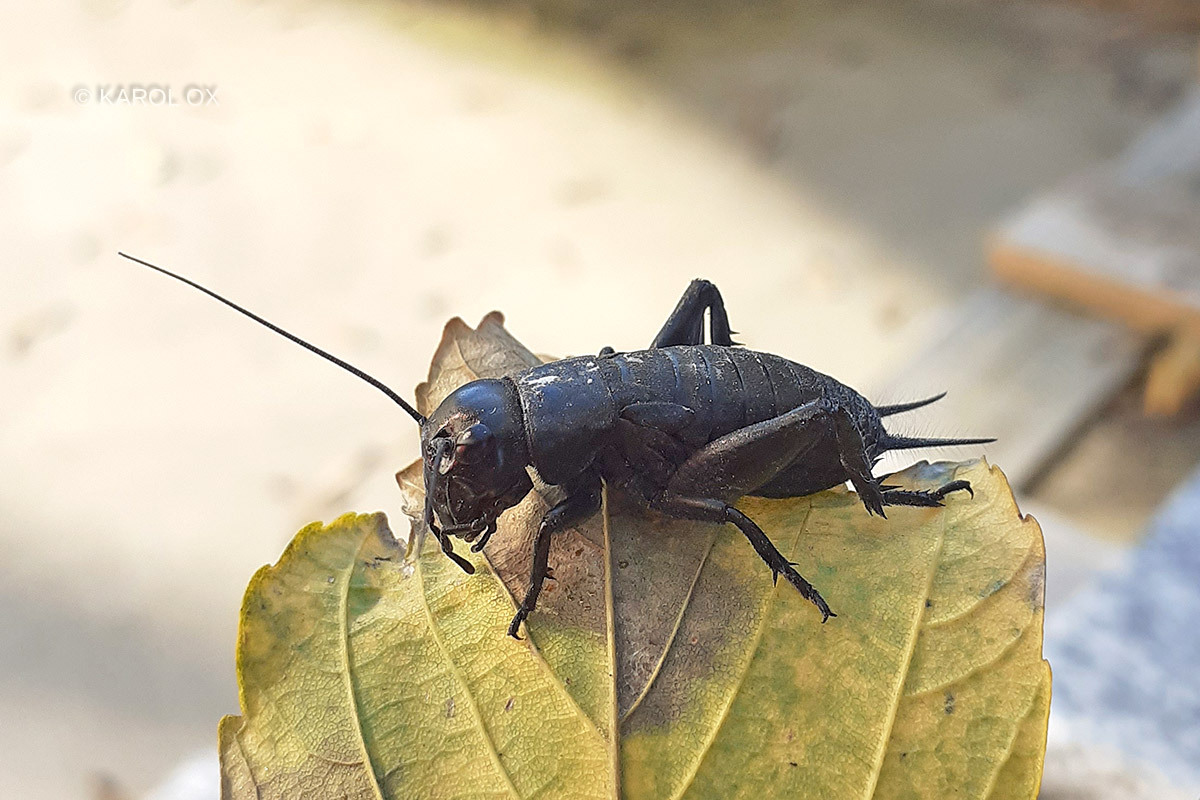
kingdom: Animalia
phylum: Arthropoda
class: Insecta
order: Orthoptera
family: Gryllidae
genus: Gryllus
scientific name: Gryllus campestris
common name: Field cricket
